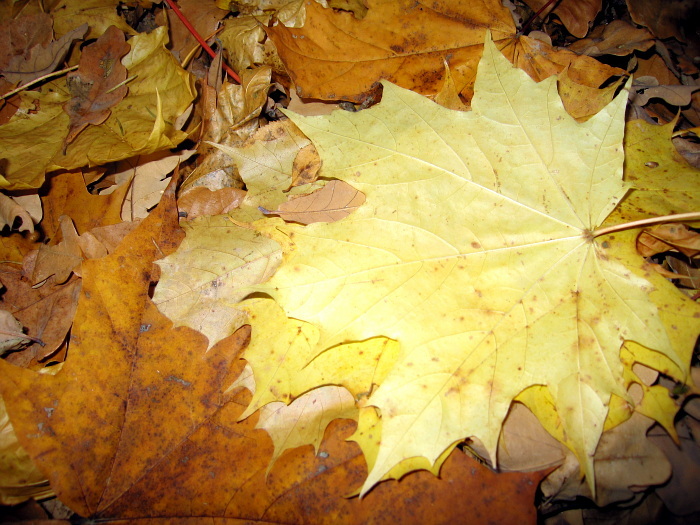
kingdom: Plantae
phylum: Tracheophyta
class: Magnoliopsida
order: Sapindales
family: Sapindaceae
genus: Acer
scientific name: Acer platanoides
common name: Norway maple
